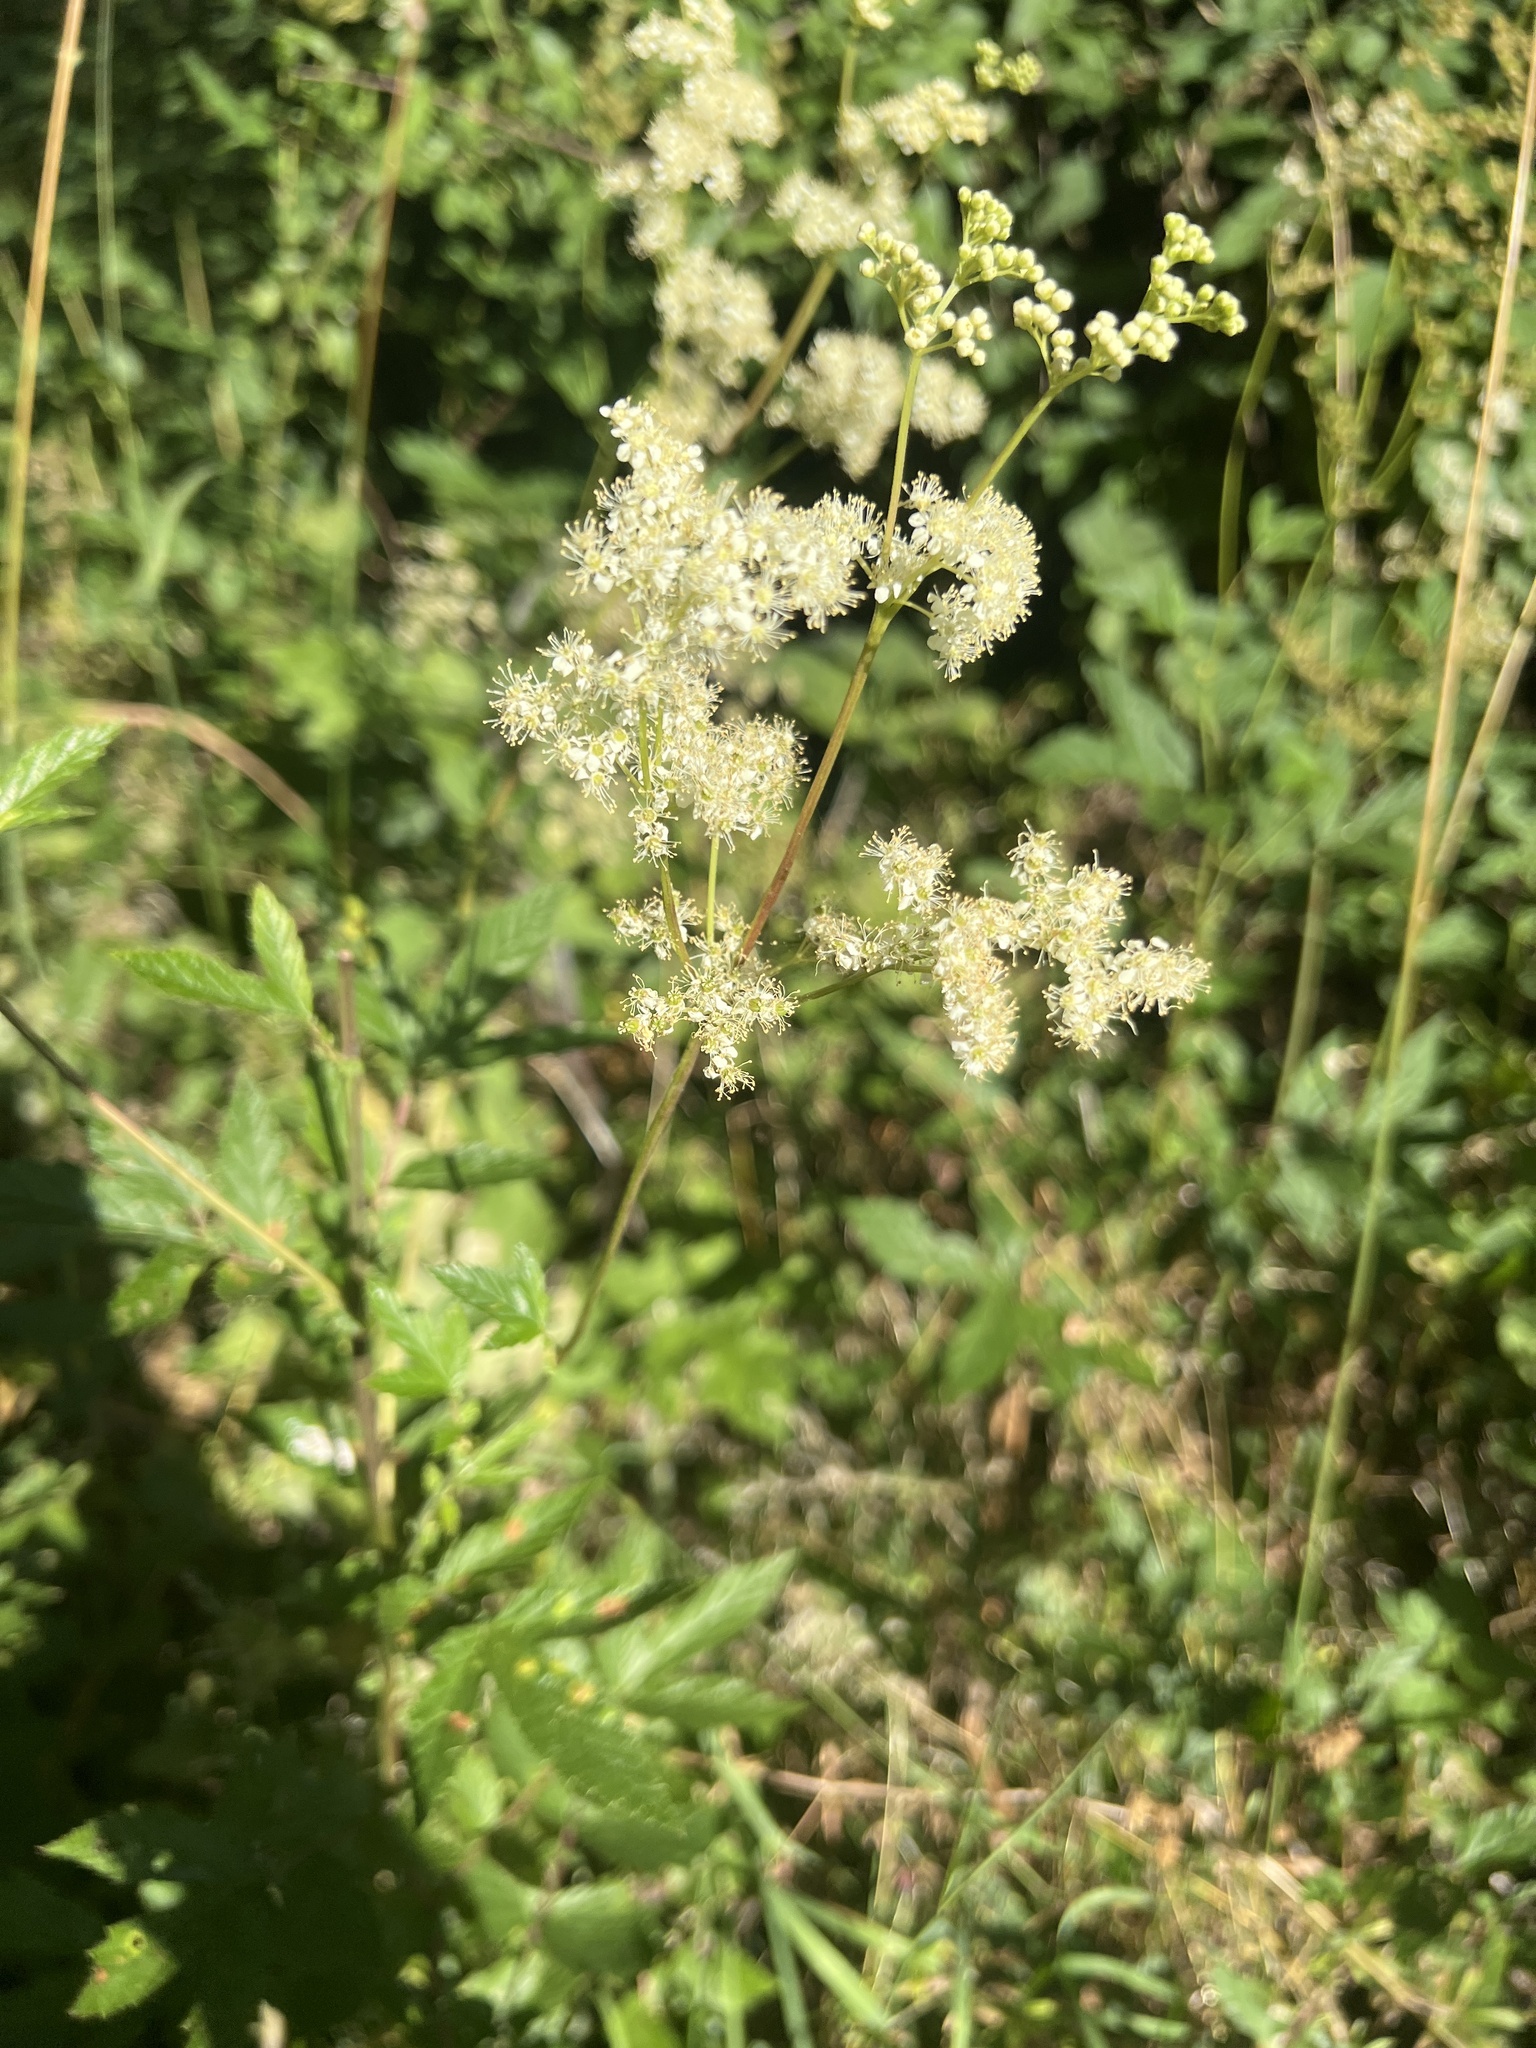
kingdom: Plantae
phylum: Tracheophyta
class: Magnoliopsida
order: Rosales
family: Rosaceae
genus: Filipendula
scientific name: Filipendula ulmaria
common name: Meadowsweet
